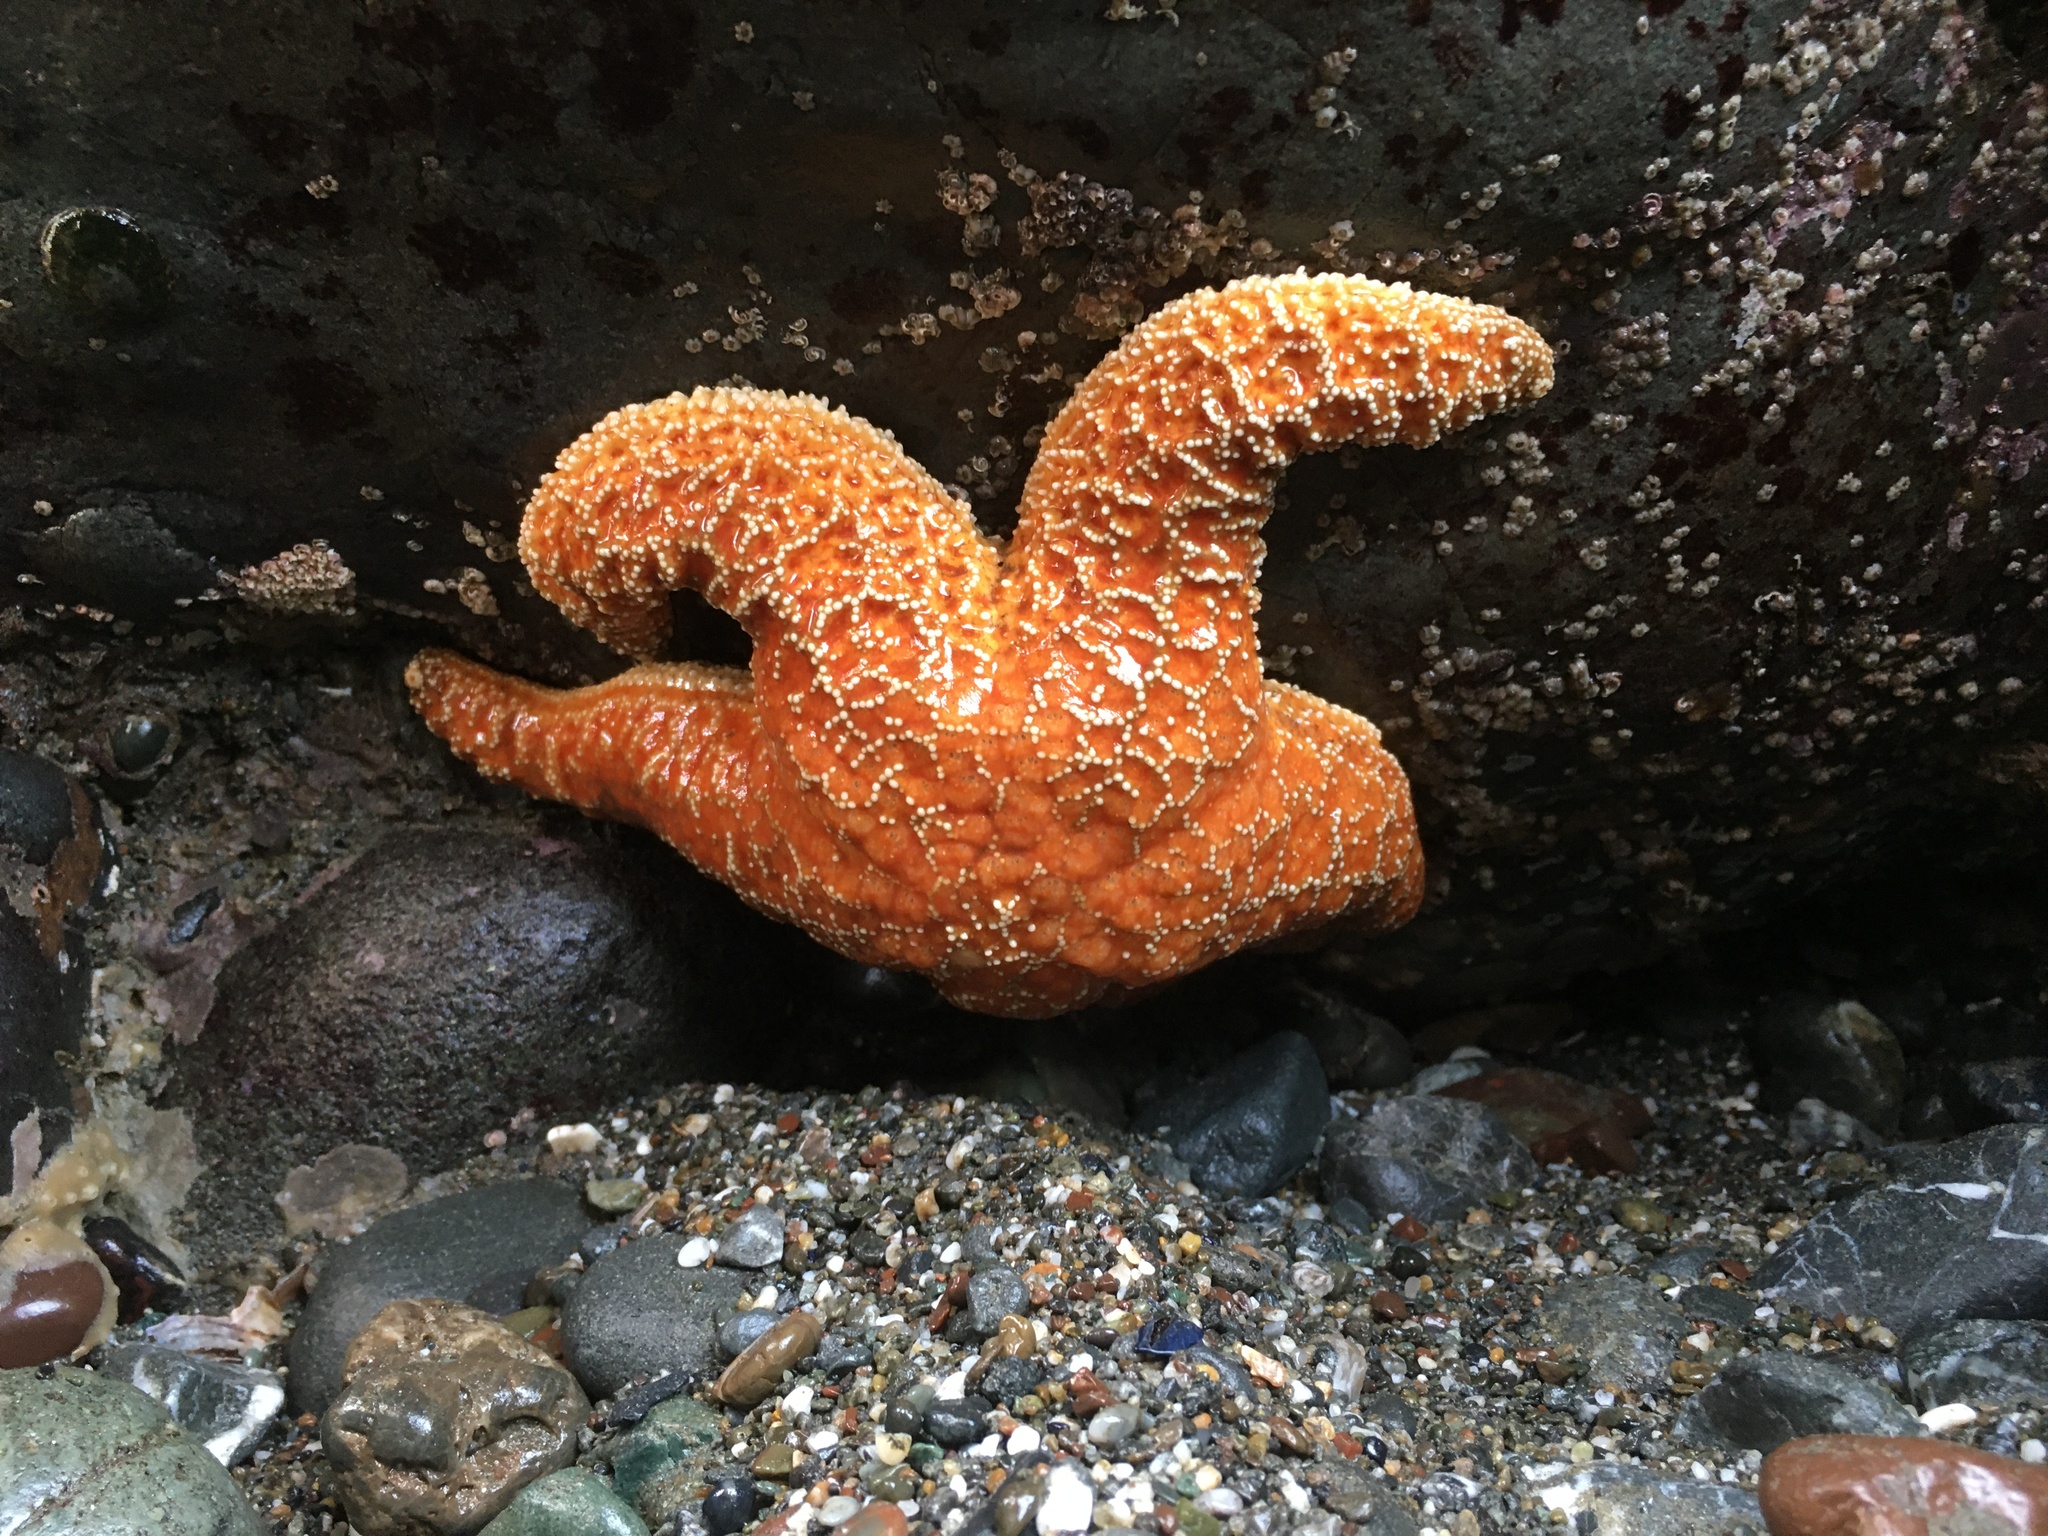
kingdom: Animalia
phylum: Echinodermata
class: Asteroidea
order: Forcipulatida
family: Asteriidae
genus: Pisaster
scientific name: Pisaster ochraceus
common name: Ochre stars
